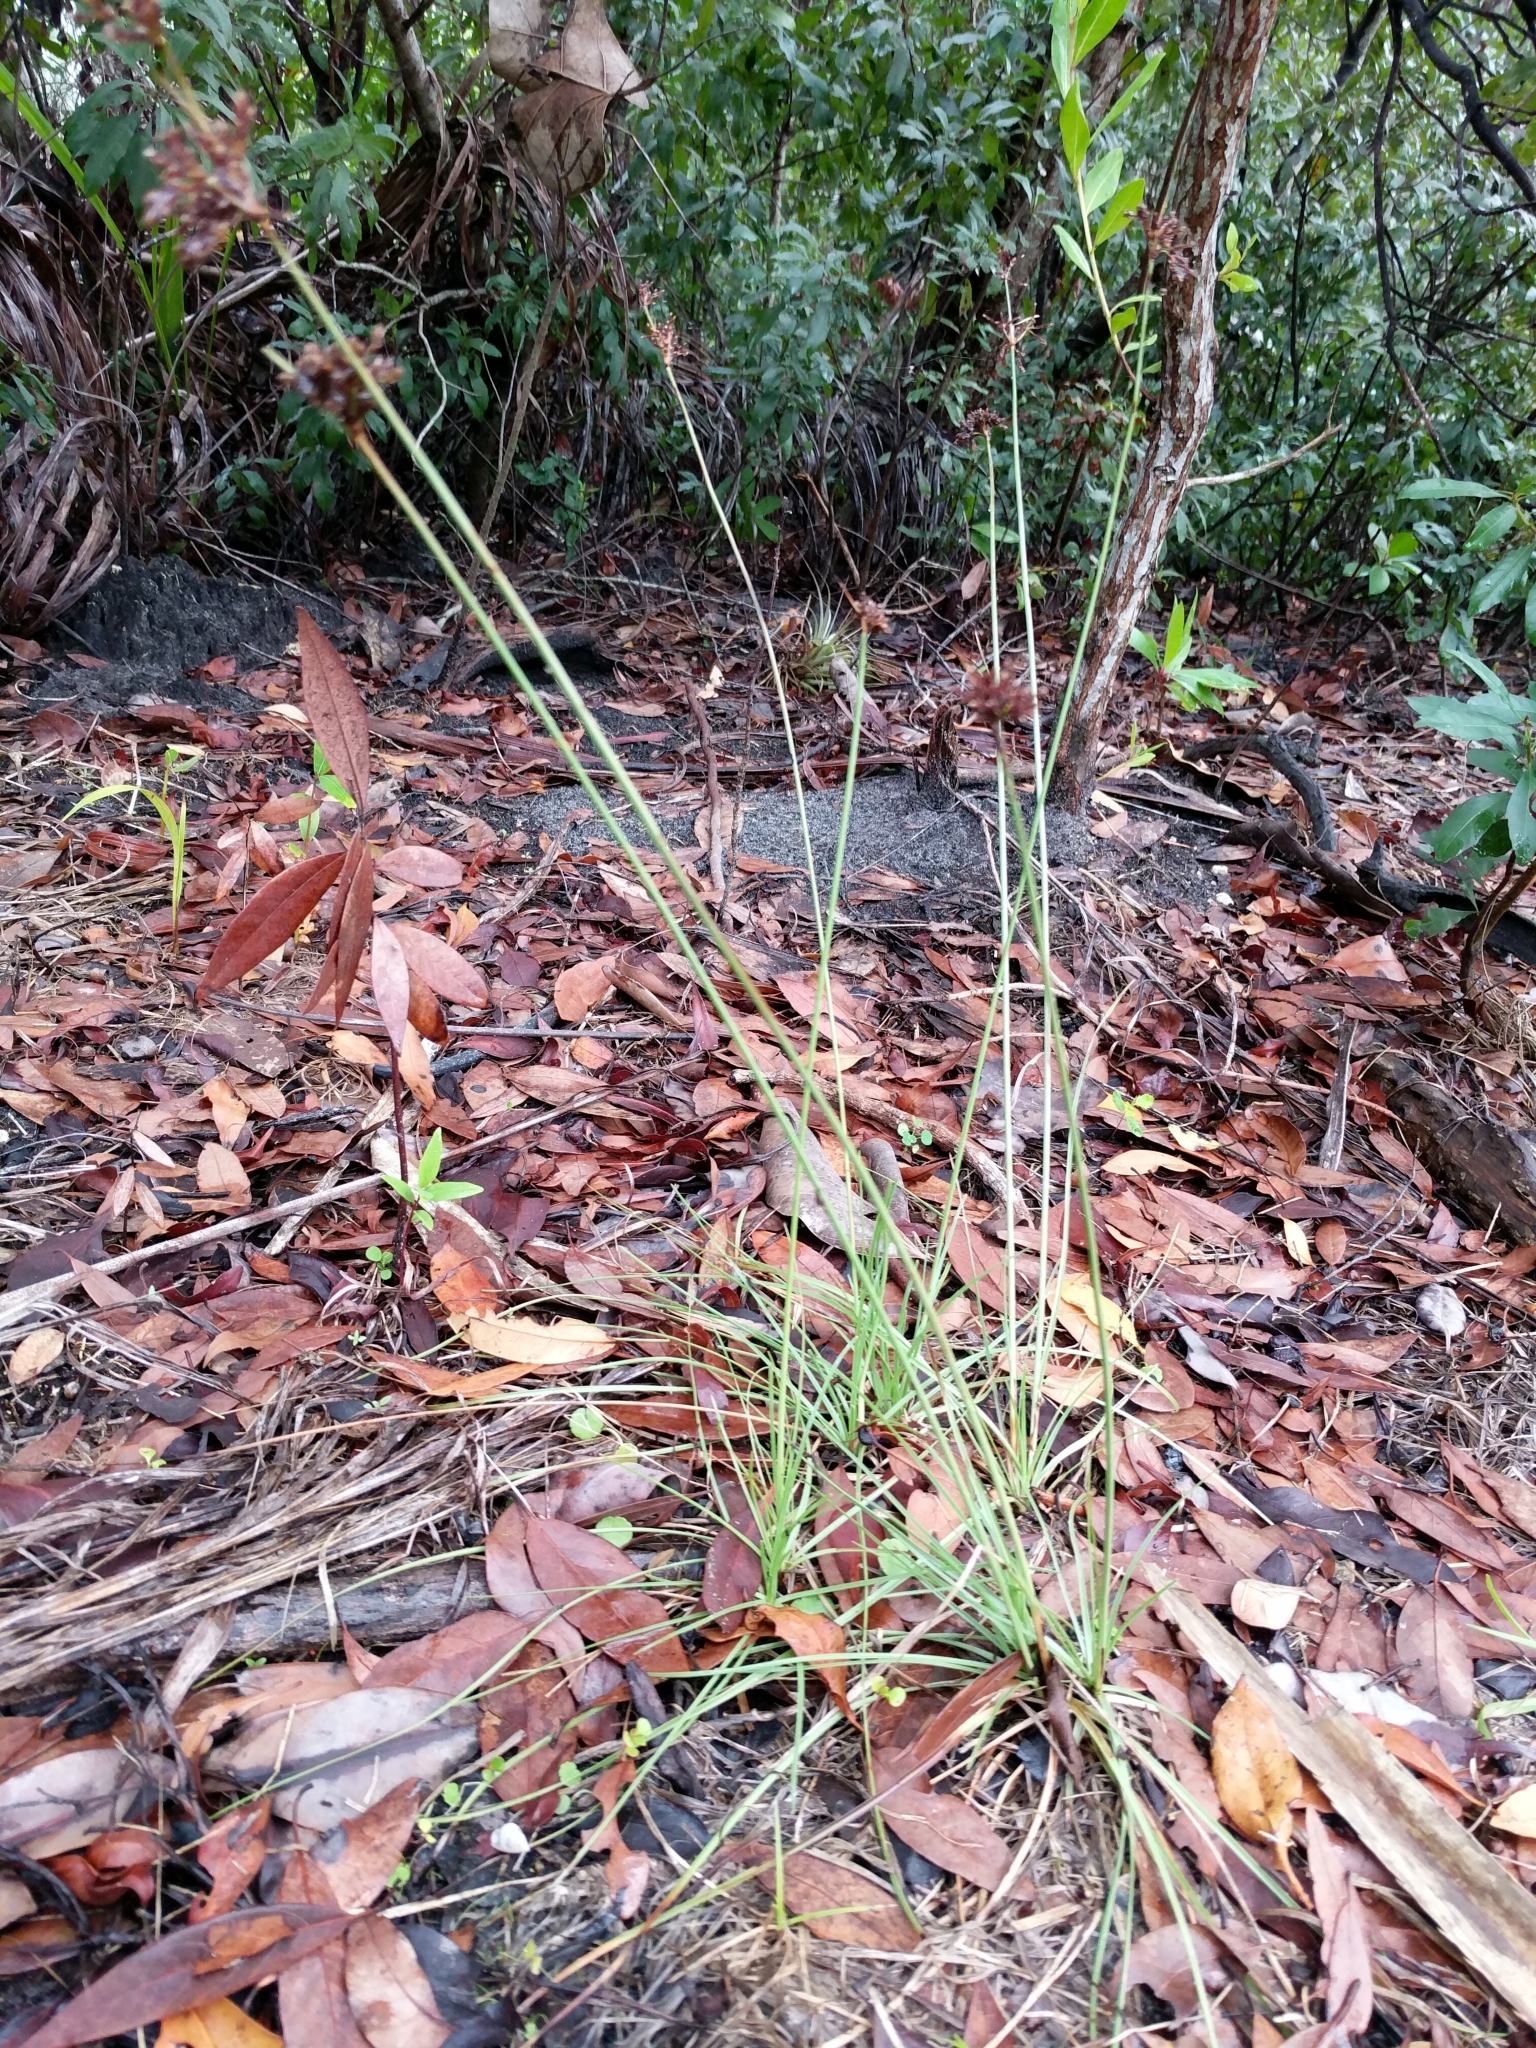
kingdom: Plantae
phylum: Tracheophyta
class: Liliopsida
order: Poales
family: Cyperaceae
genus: Fimbristylis
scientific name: Fimbristylis cymosa
